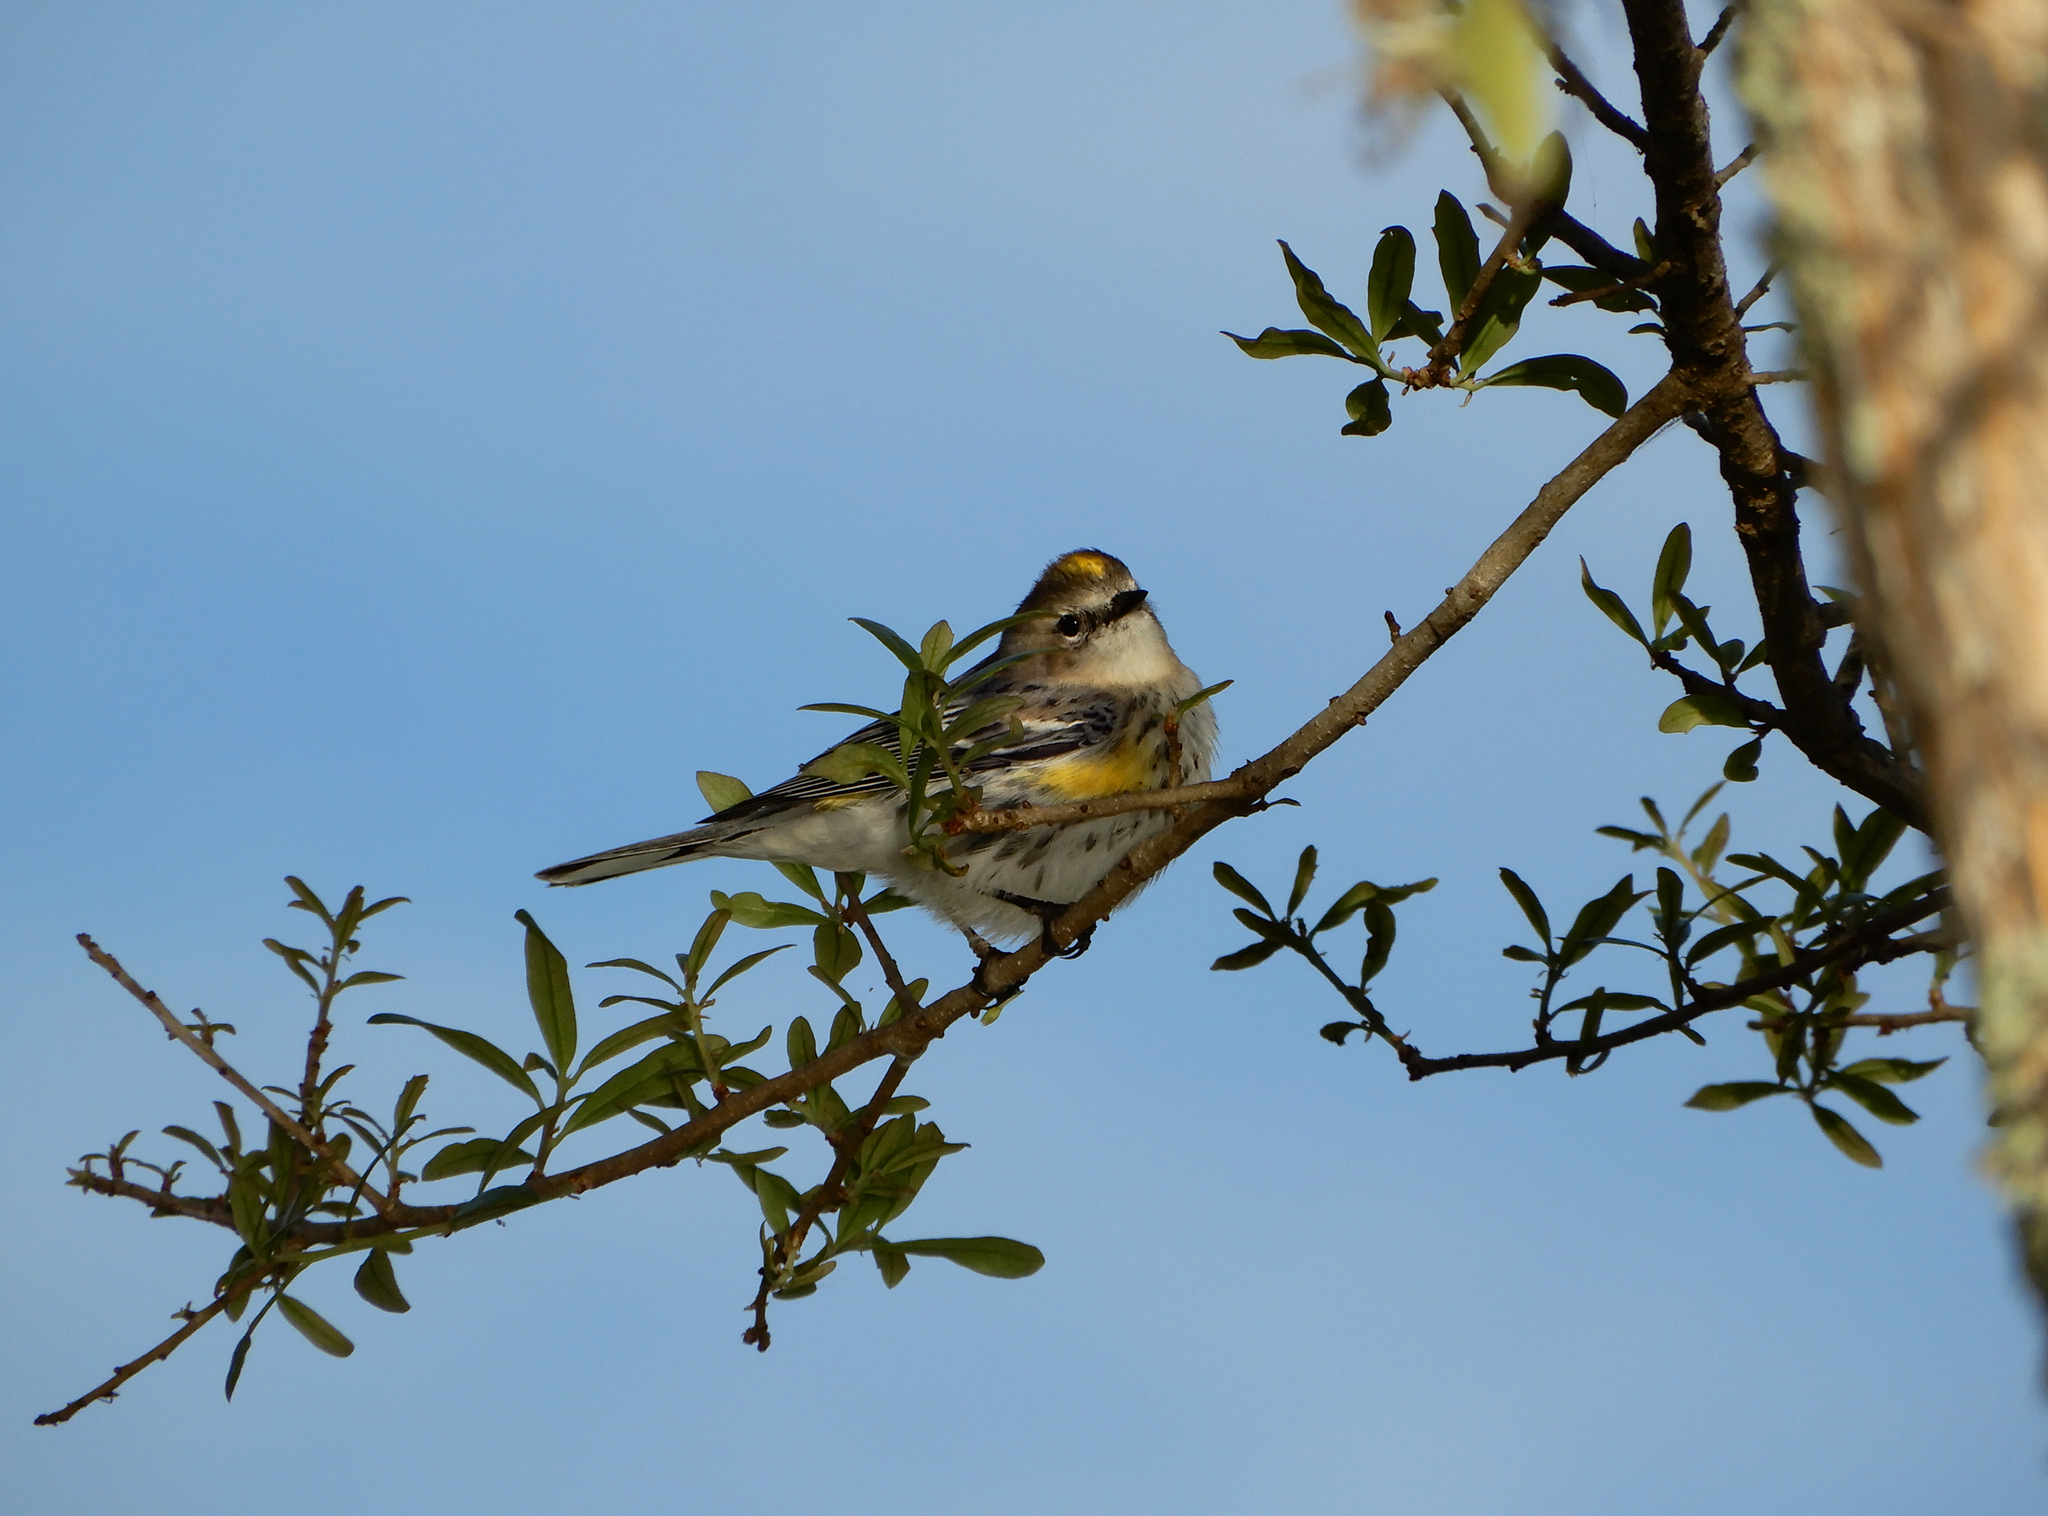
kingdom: Animalia
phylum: Chordata
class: Aves
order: Passeriformes
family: Parulidae
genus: Setophaga
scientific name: Setophaga coronata
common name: Myrtle warbler
